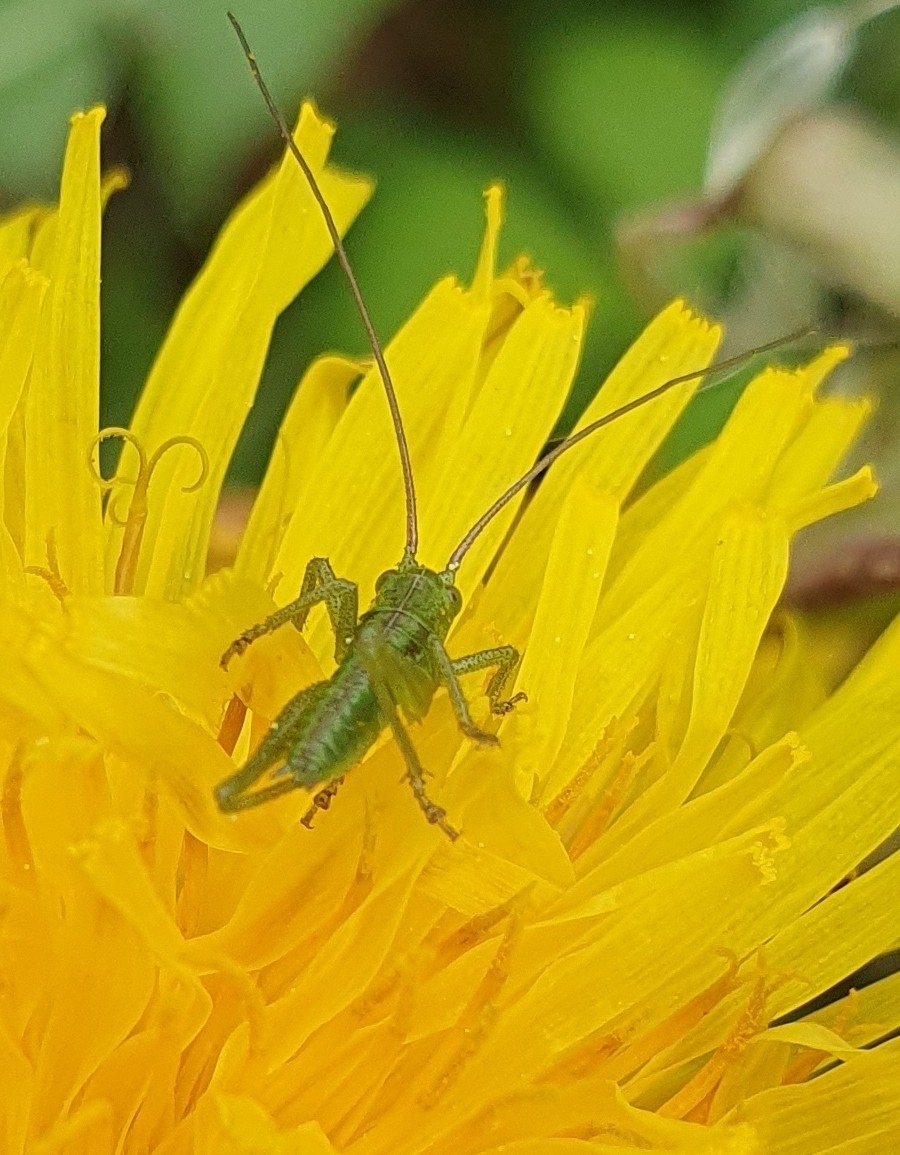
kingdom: Animalia
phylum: Arthropoda
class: Insecta
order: Orthoptera
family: Tettigoniidae
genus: Tettigonia
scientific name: Tettigonia viridissima
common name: Great green bush-cricket
